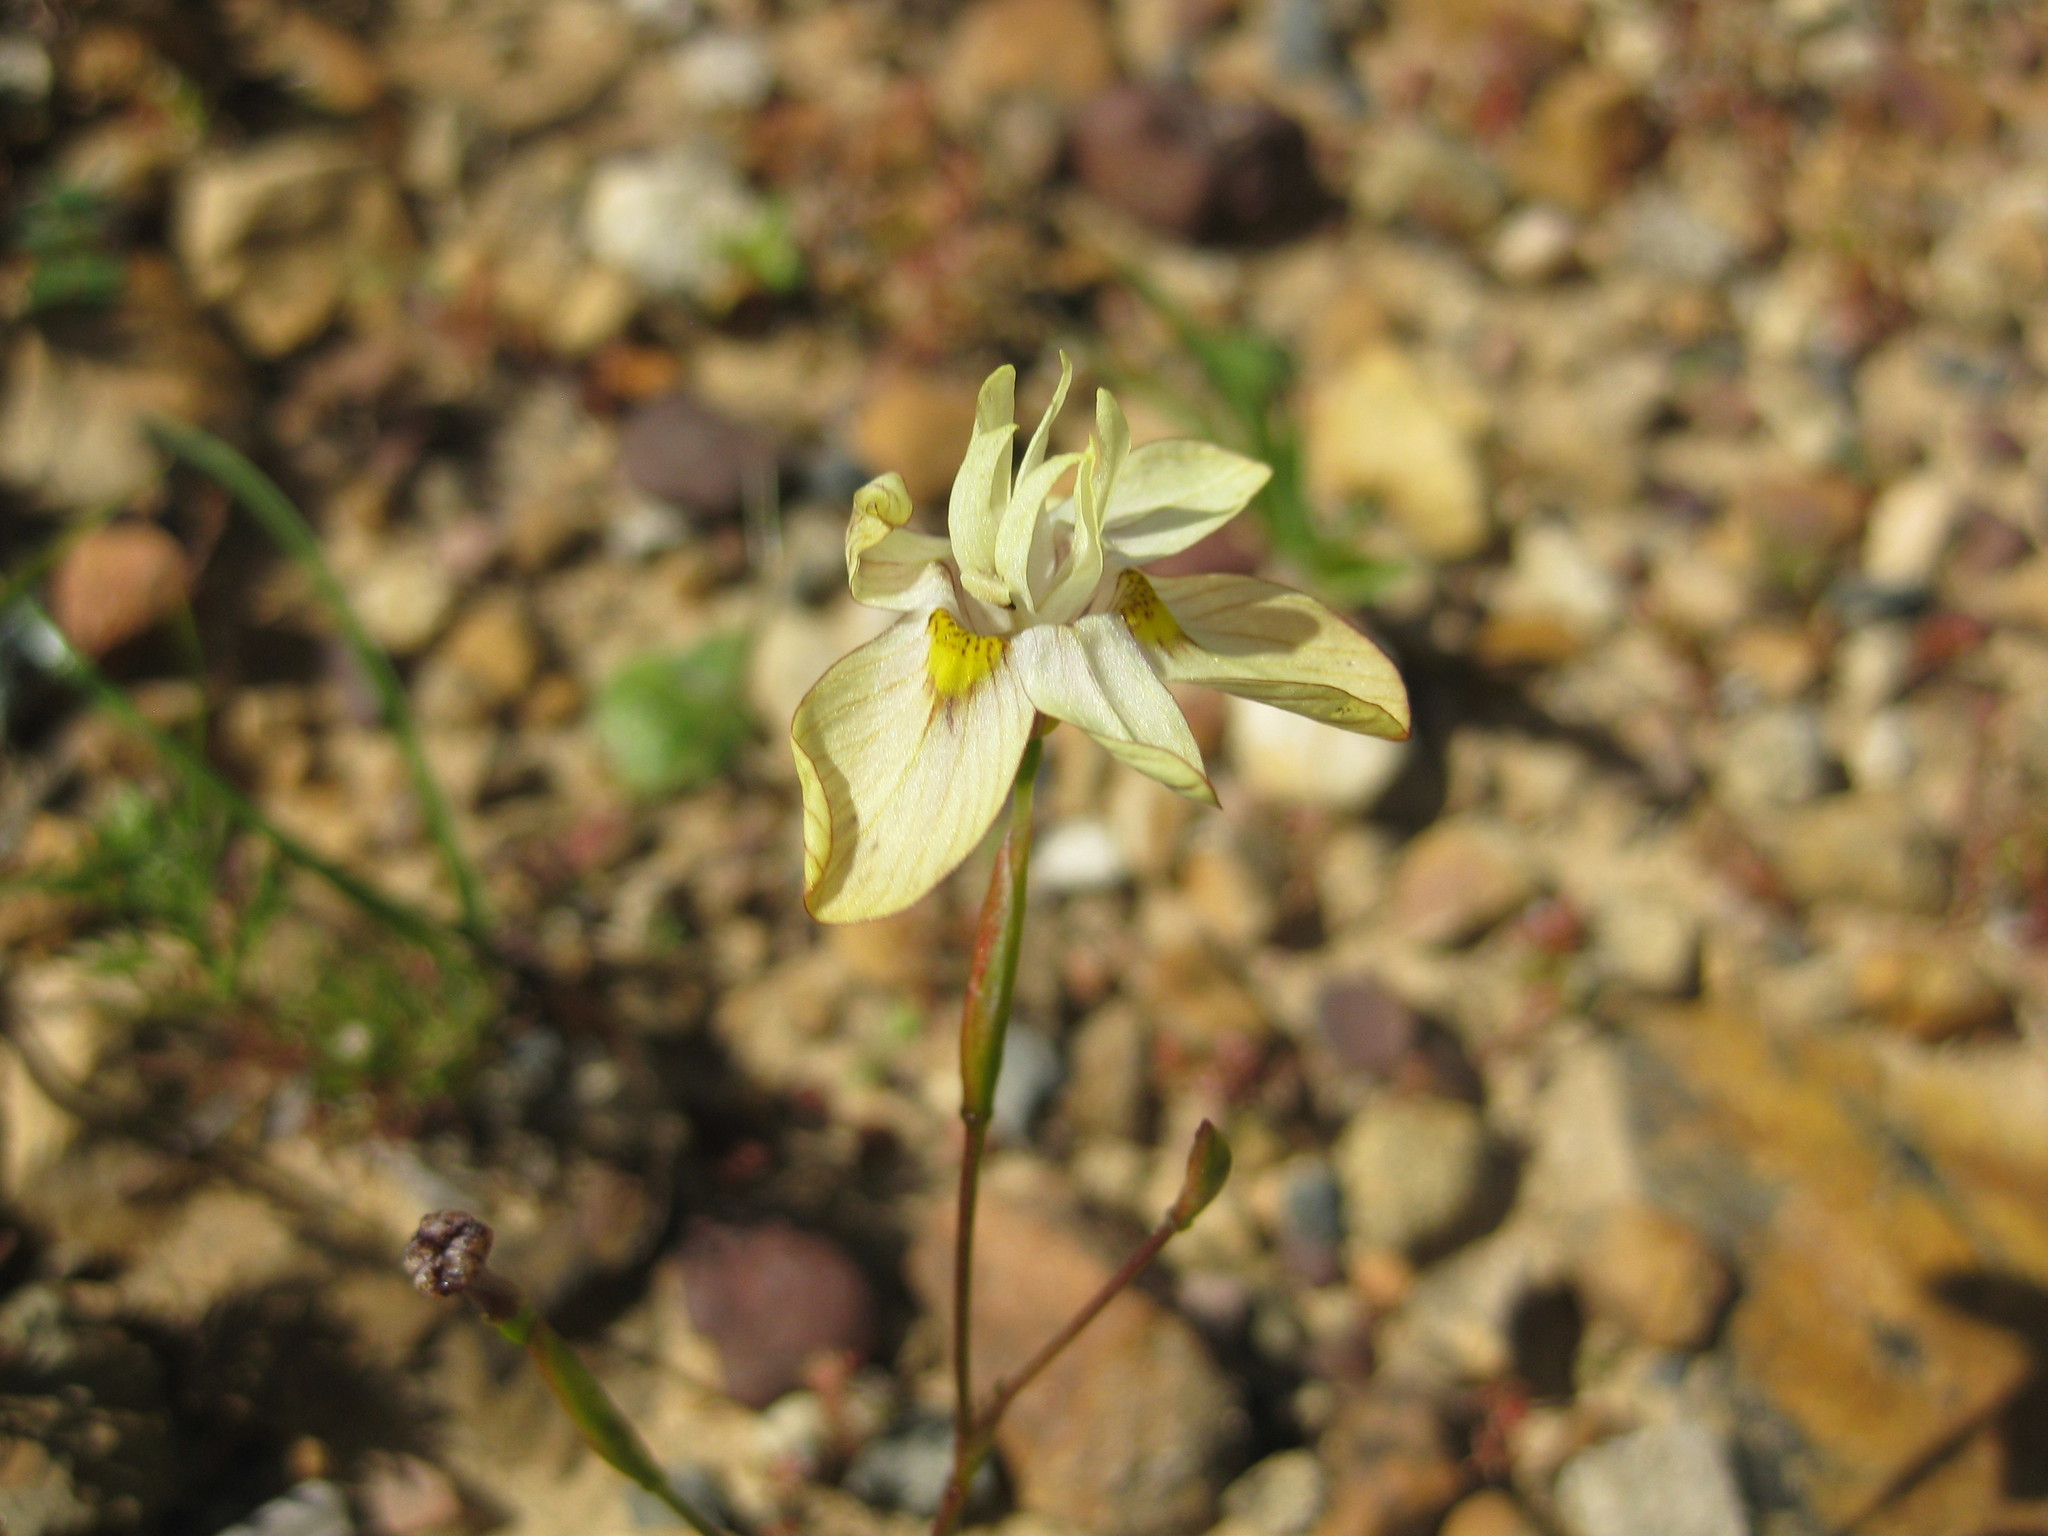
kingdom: Plantae
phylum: Tracheophyta
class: Liliopsida
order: Asparagales
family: Iridaceae
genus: Moraea
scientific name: Moraea gawleri
